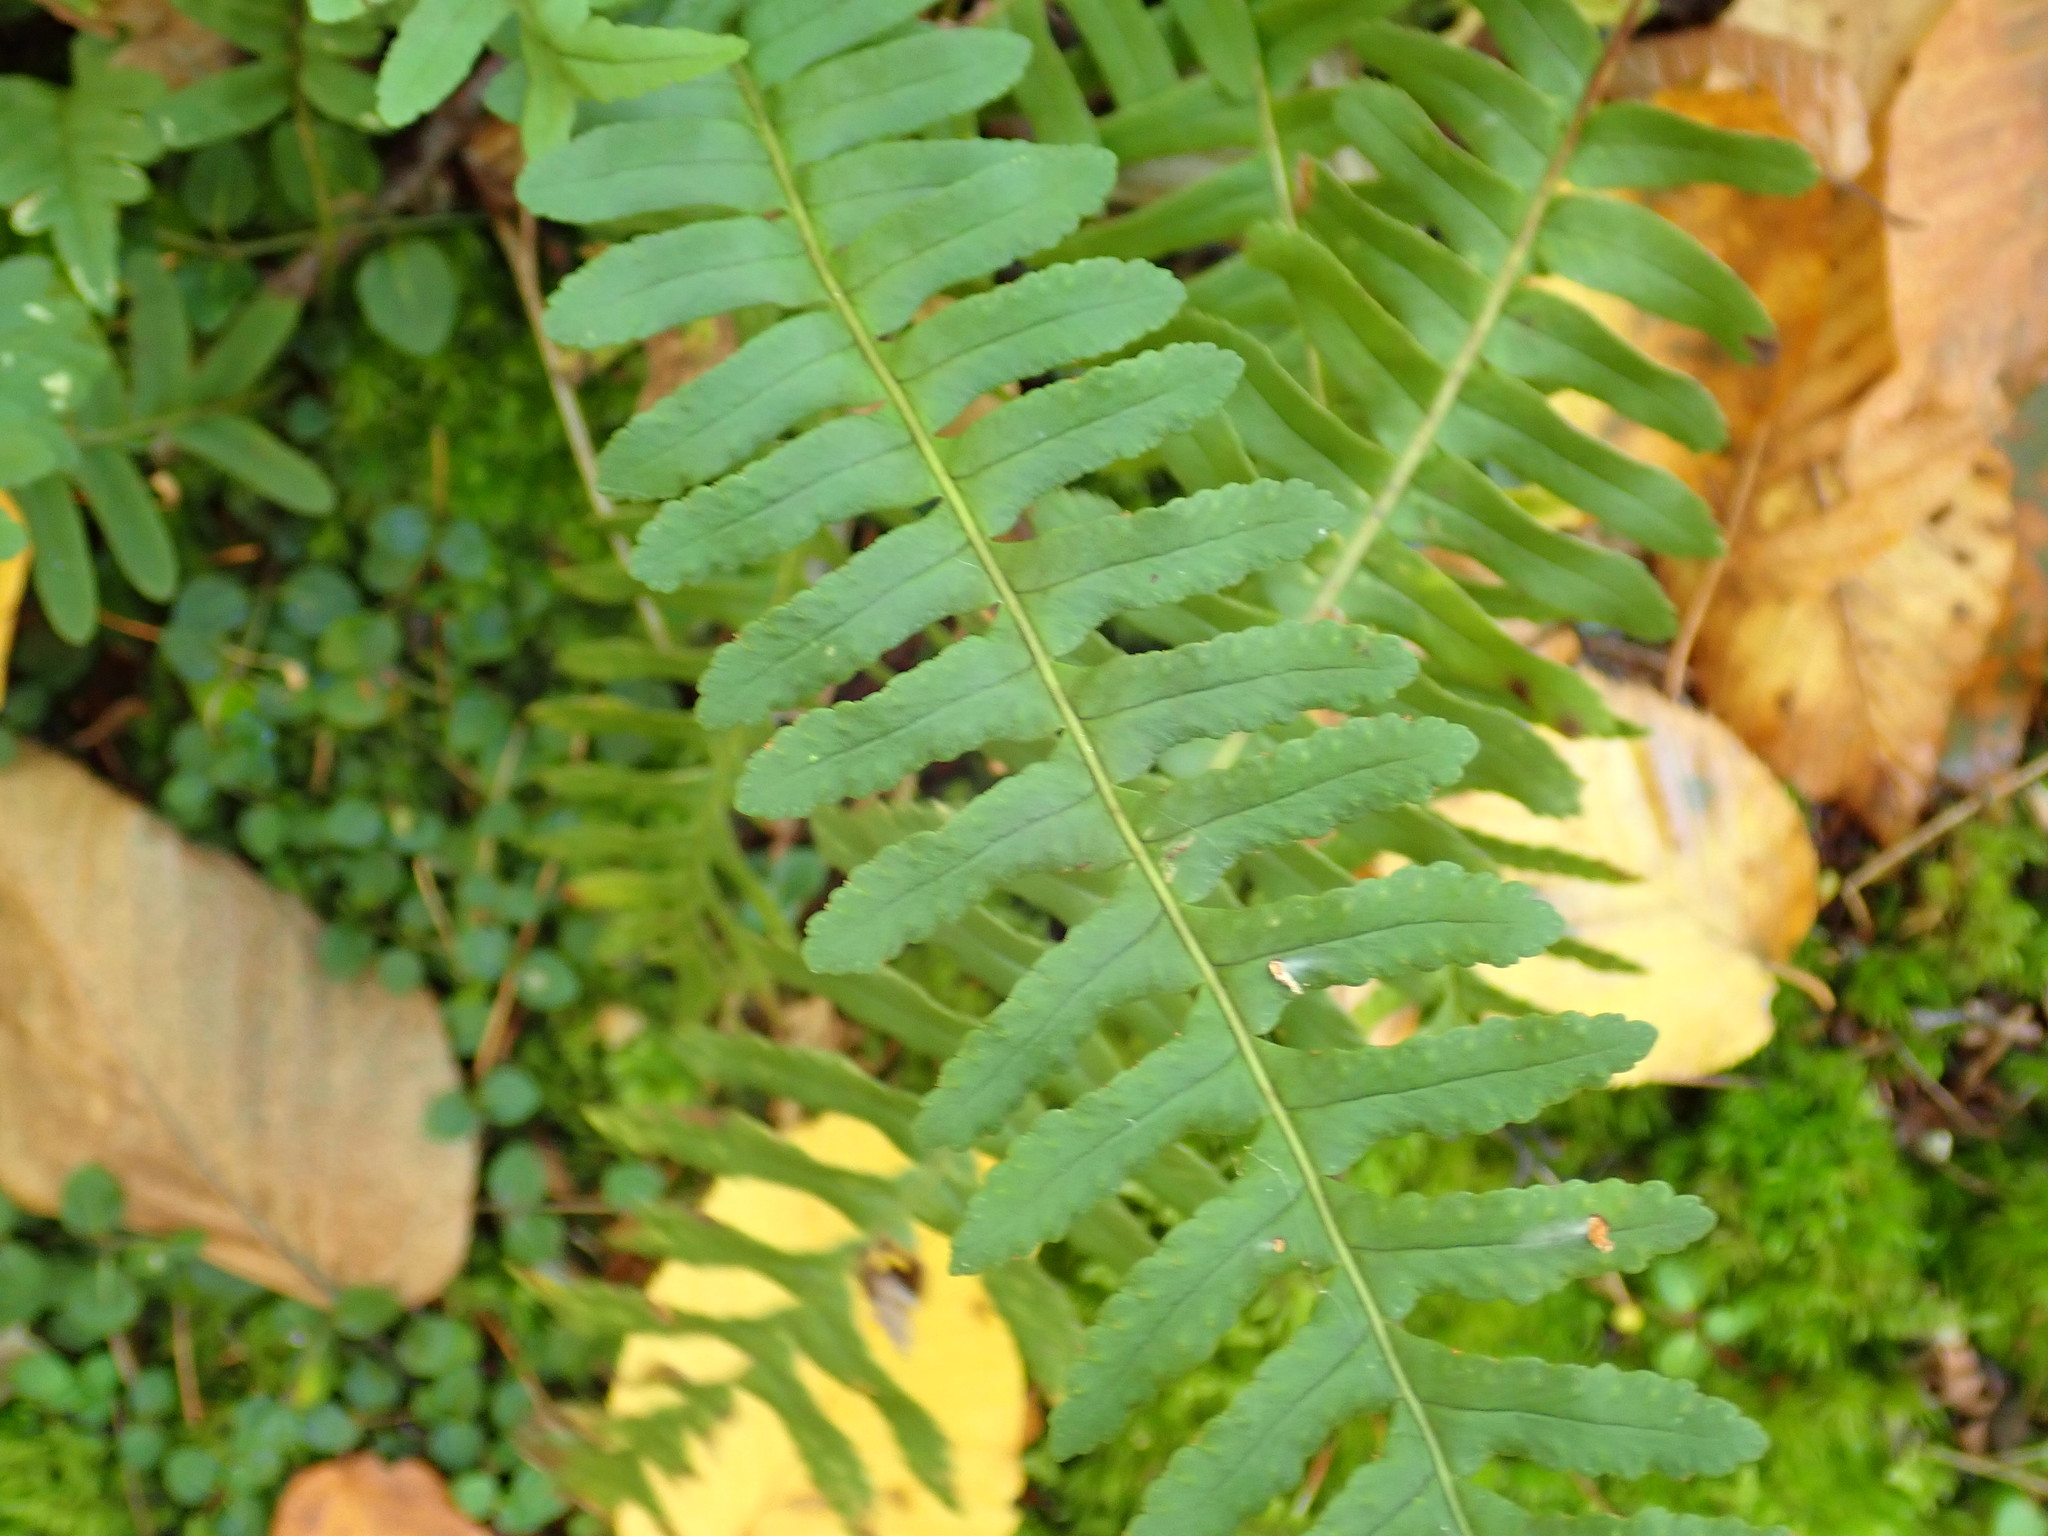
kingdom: Plantae
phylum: Tracheophyta
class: Polypodiopsida
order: Polypodiales
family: Polypodiaceae
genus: Polypodium
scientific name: Polypodium
